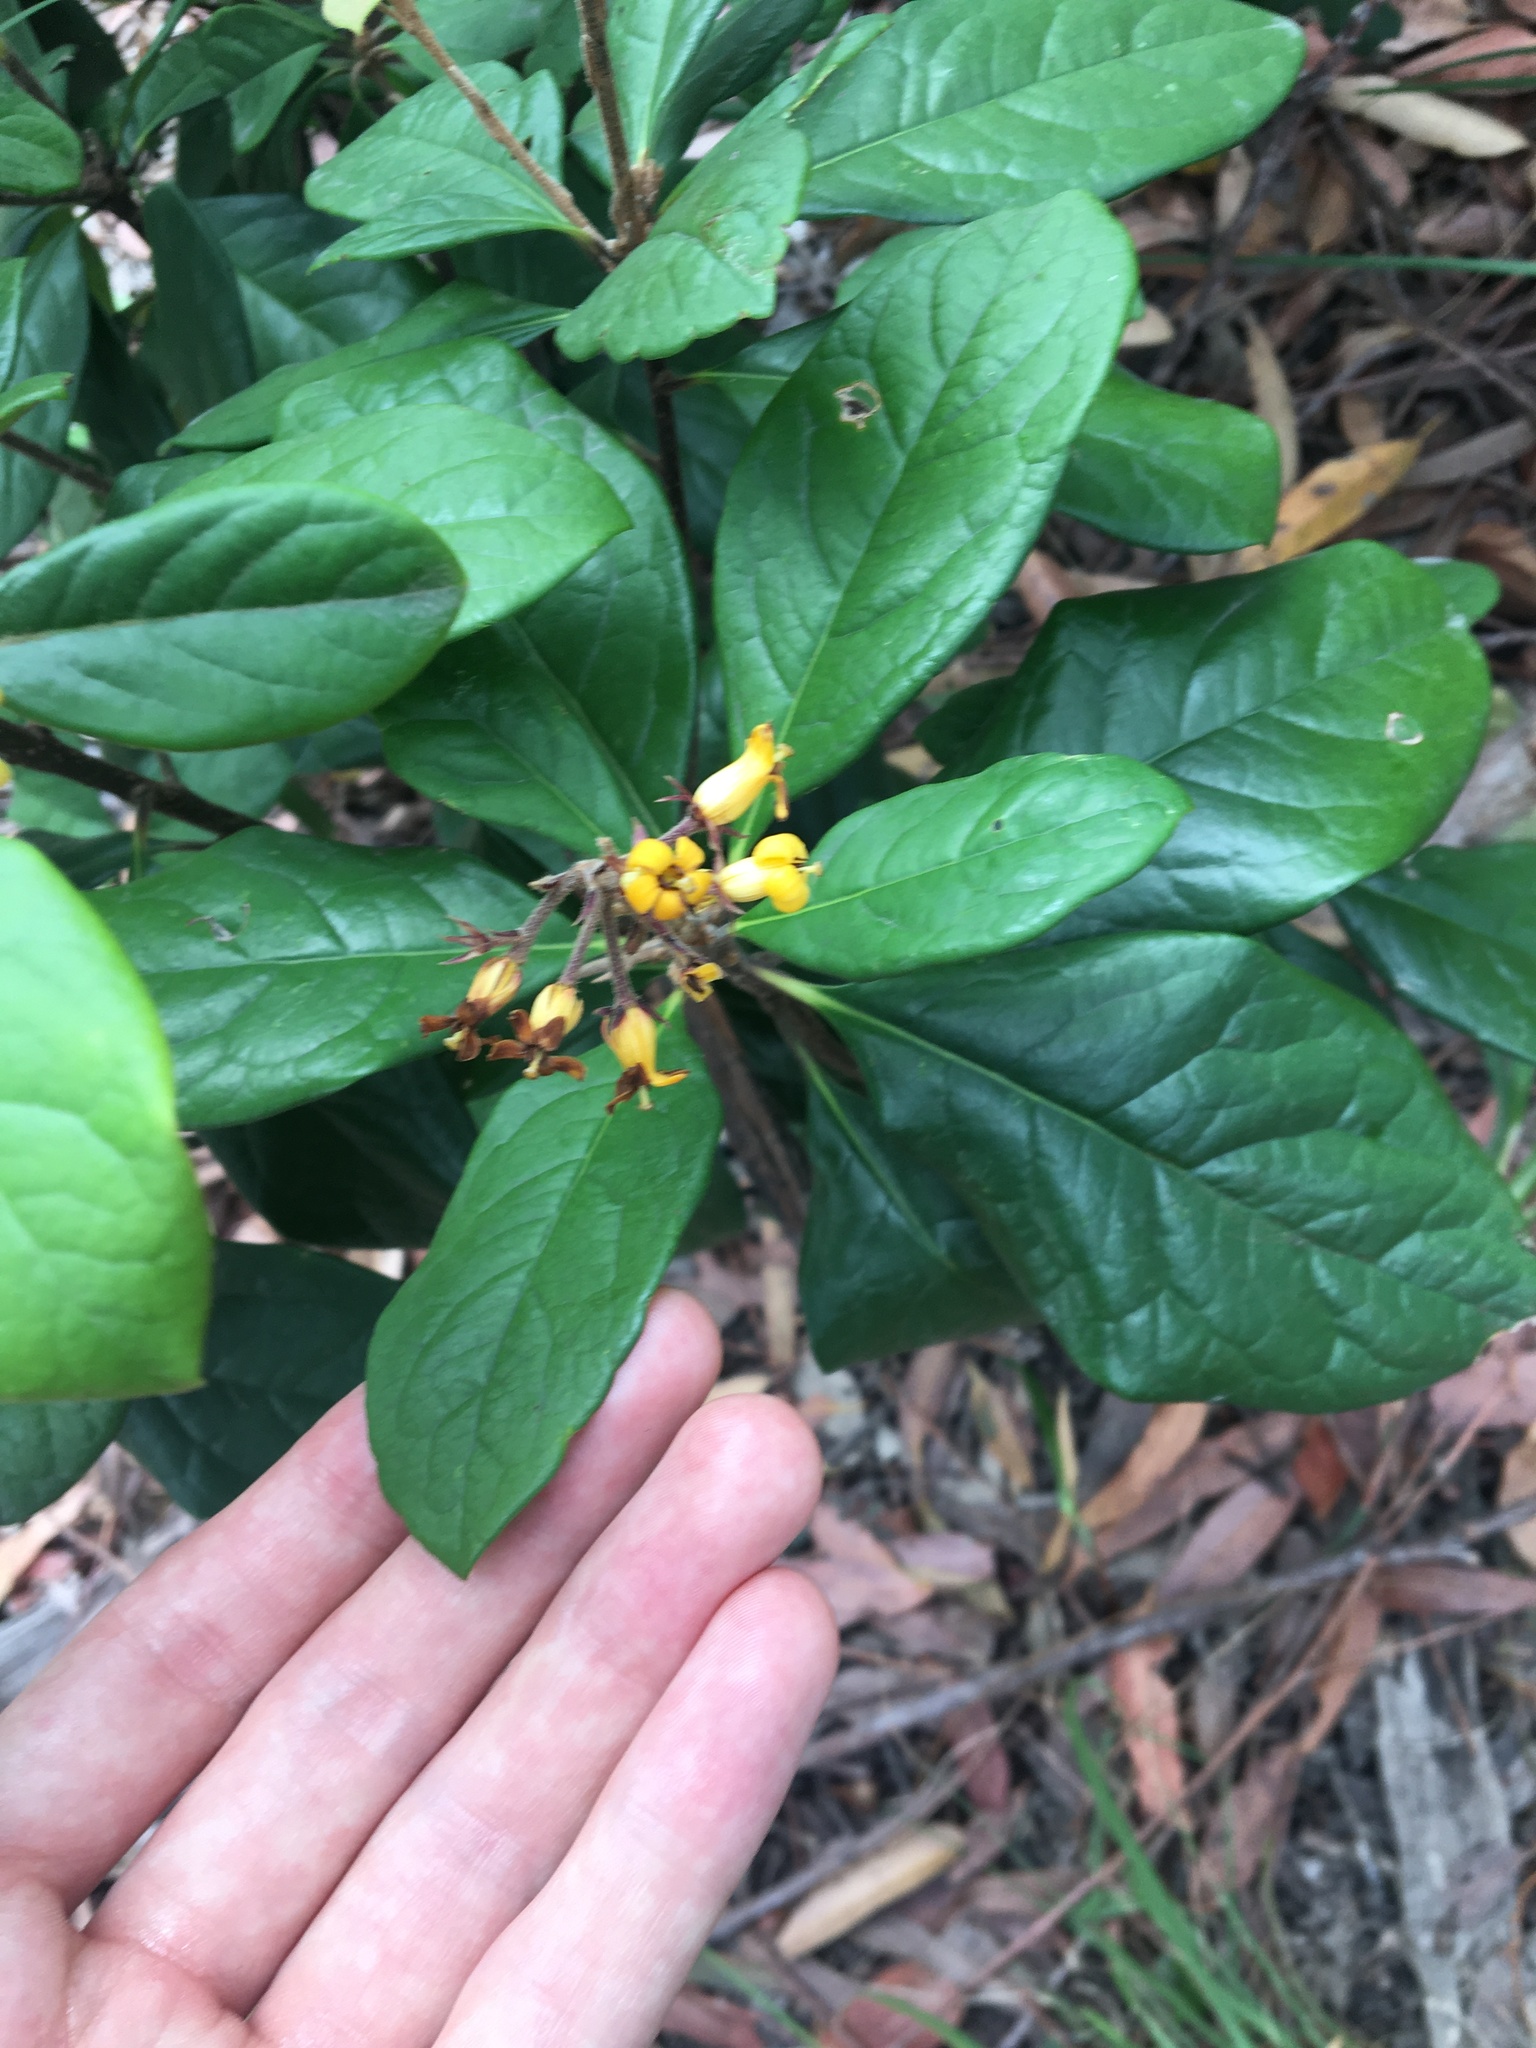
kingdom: Plantae
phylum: Tracheophyta
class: Magnoliopsida
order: Apiales
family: Pittosporaceae
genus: Pittosporum
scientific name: Pittosporum revolutum
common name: Brisbane-laurel
